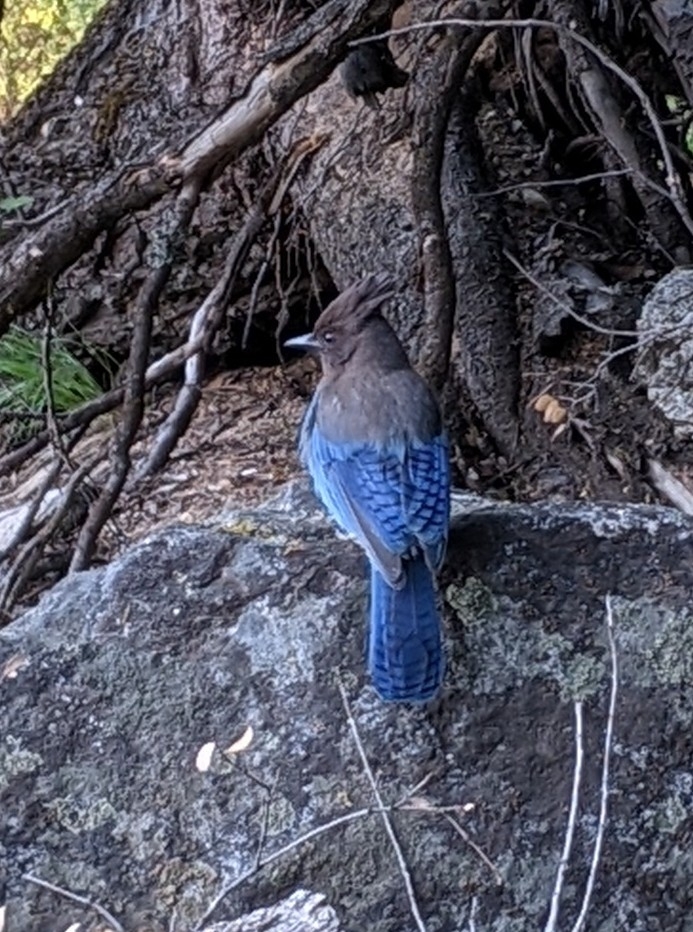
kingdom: Animalia
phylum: Chordata
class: Aves
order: Passeriformes
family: Corvidae
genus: Cyanocitta
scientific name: Cyanocitta stelleri
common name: Steller's jay
